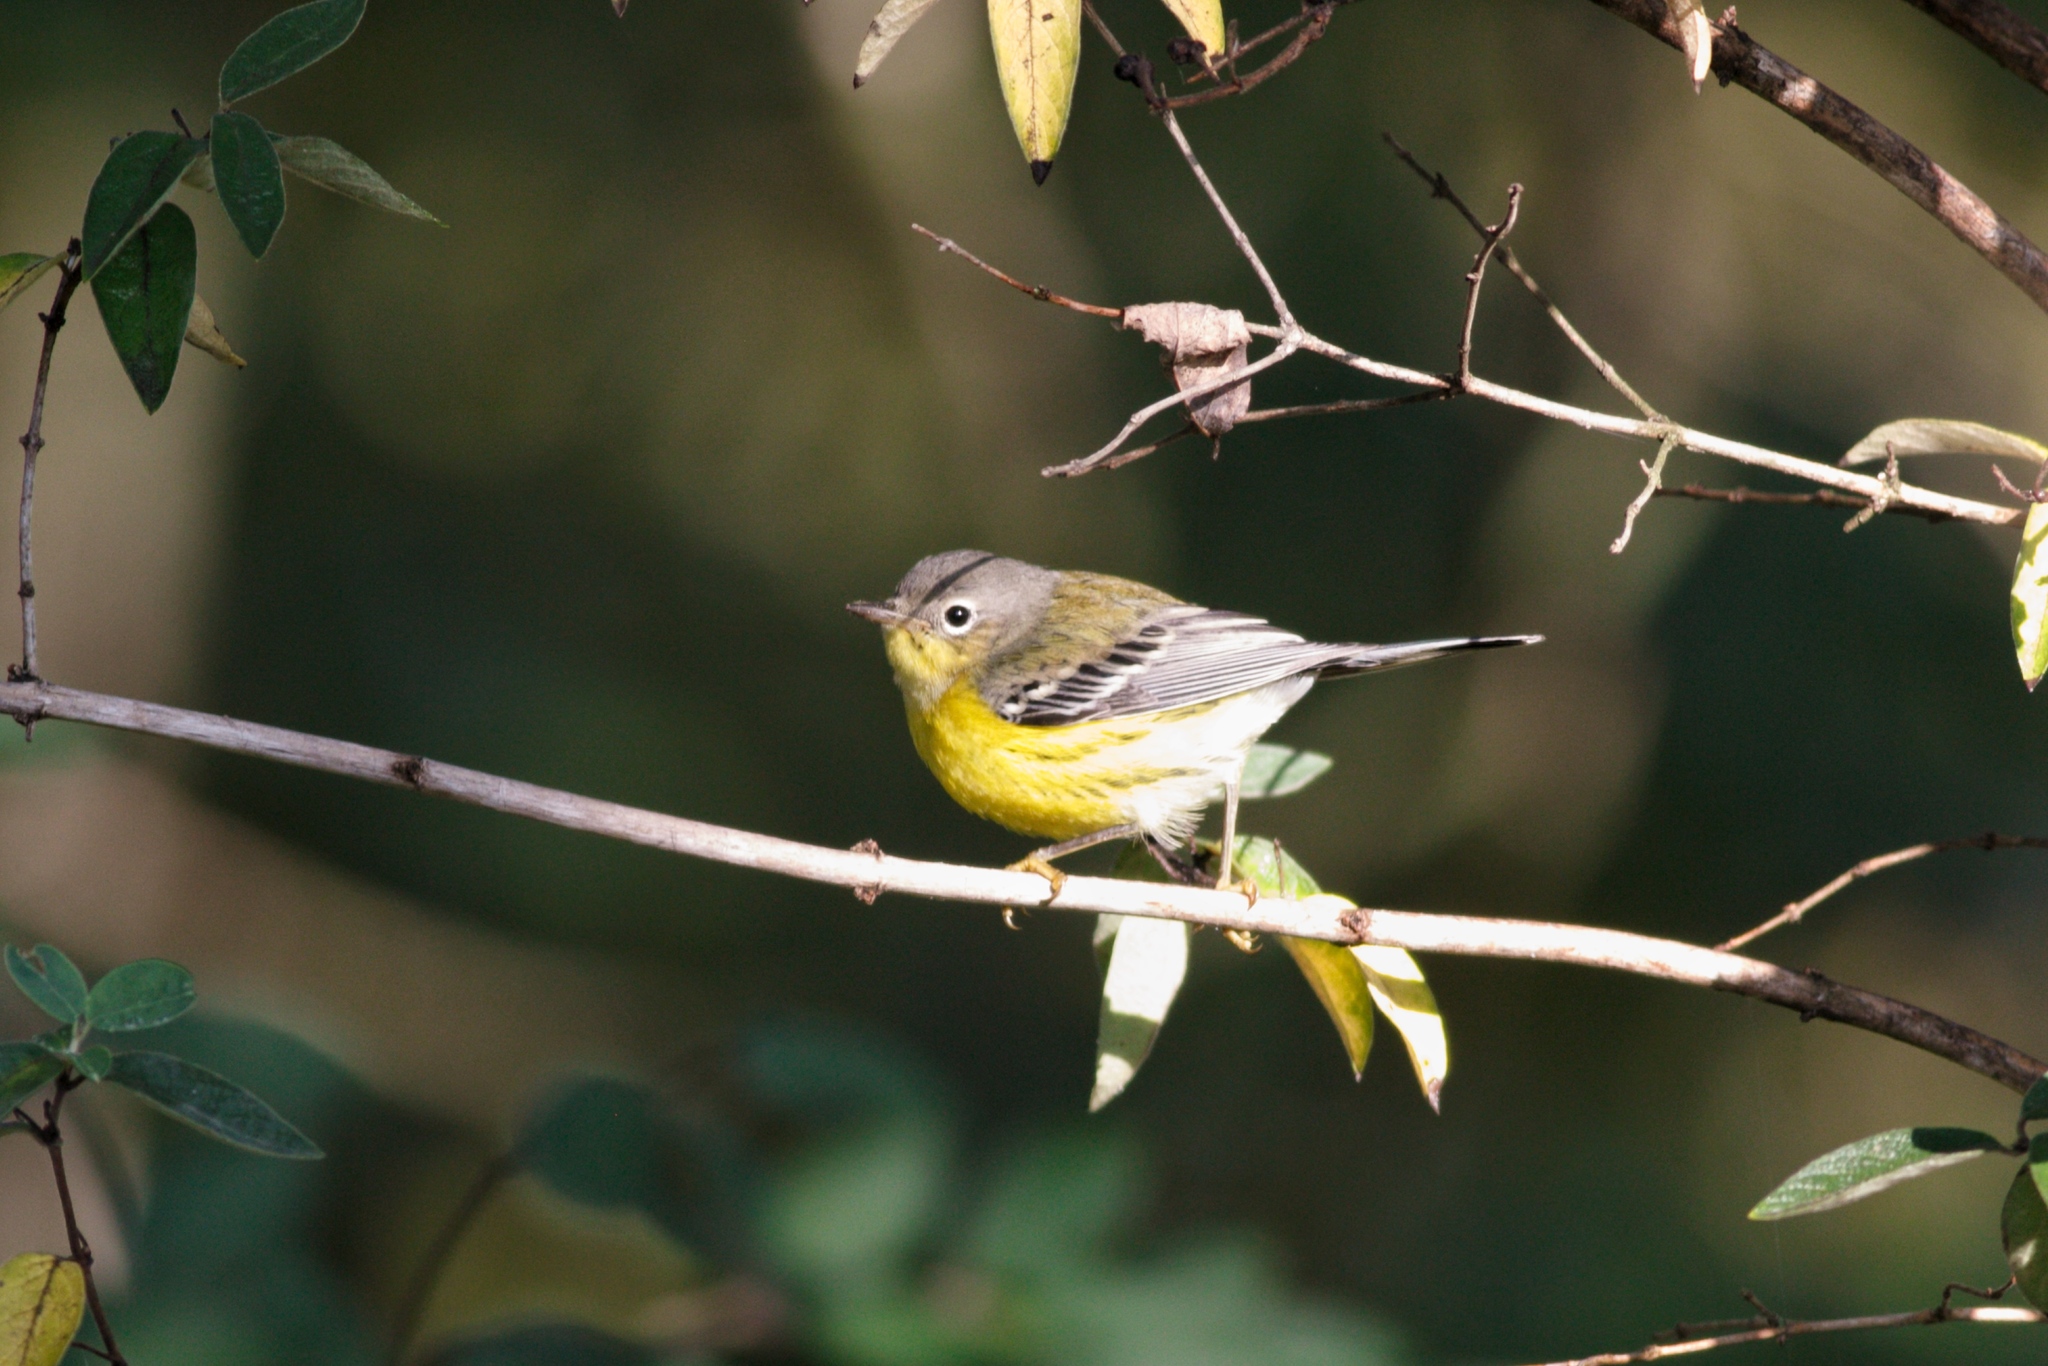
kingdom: Animalia
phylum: Chordata
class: Aves
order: Passeriformes
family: Parulidae
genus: Setophaga
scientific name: Setophaga magnolia
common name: Magnolia warbler
